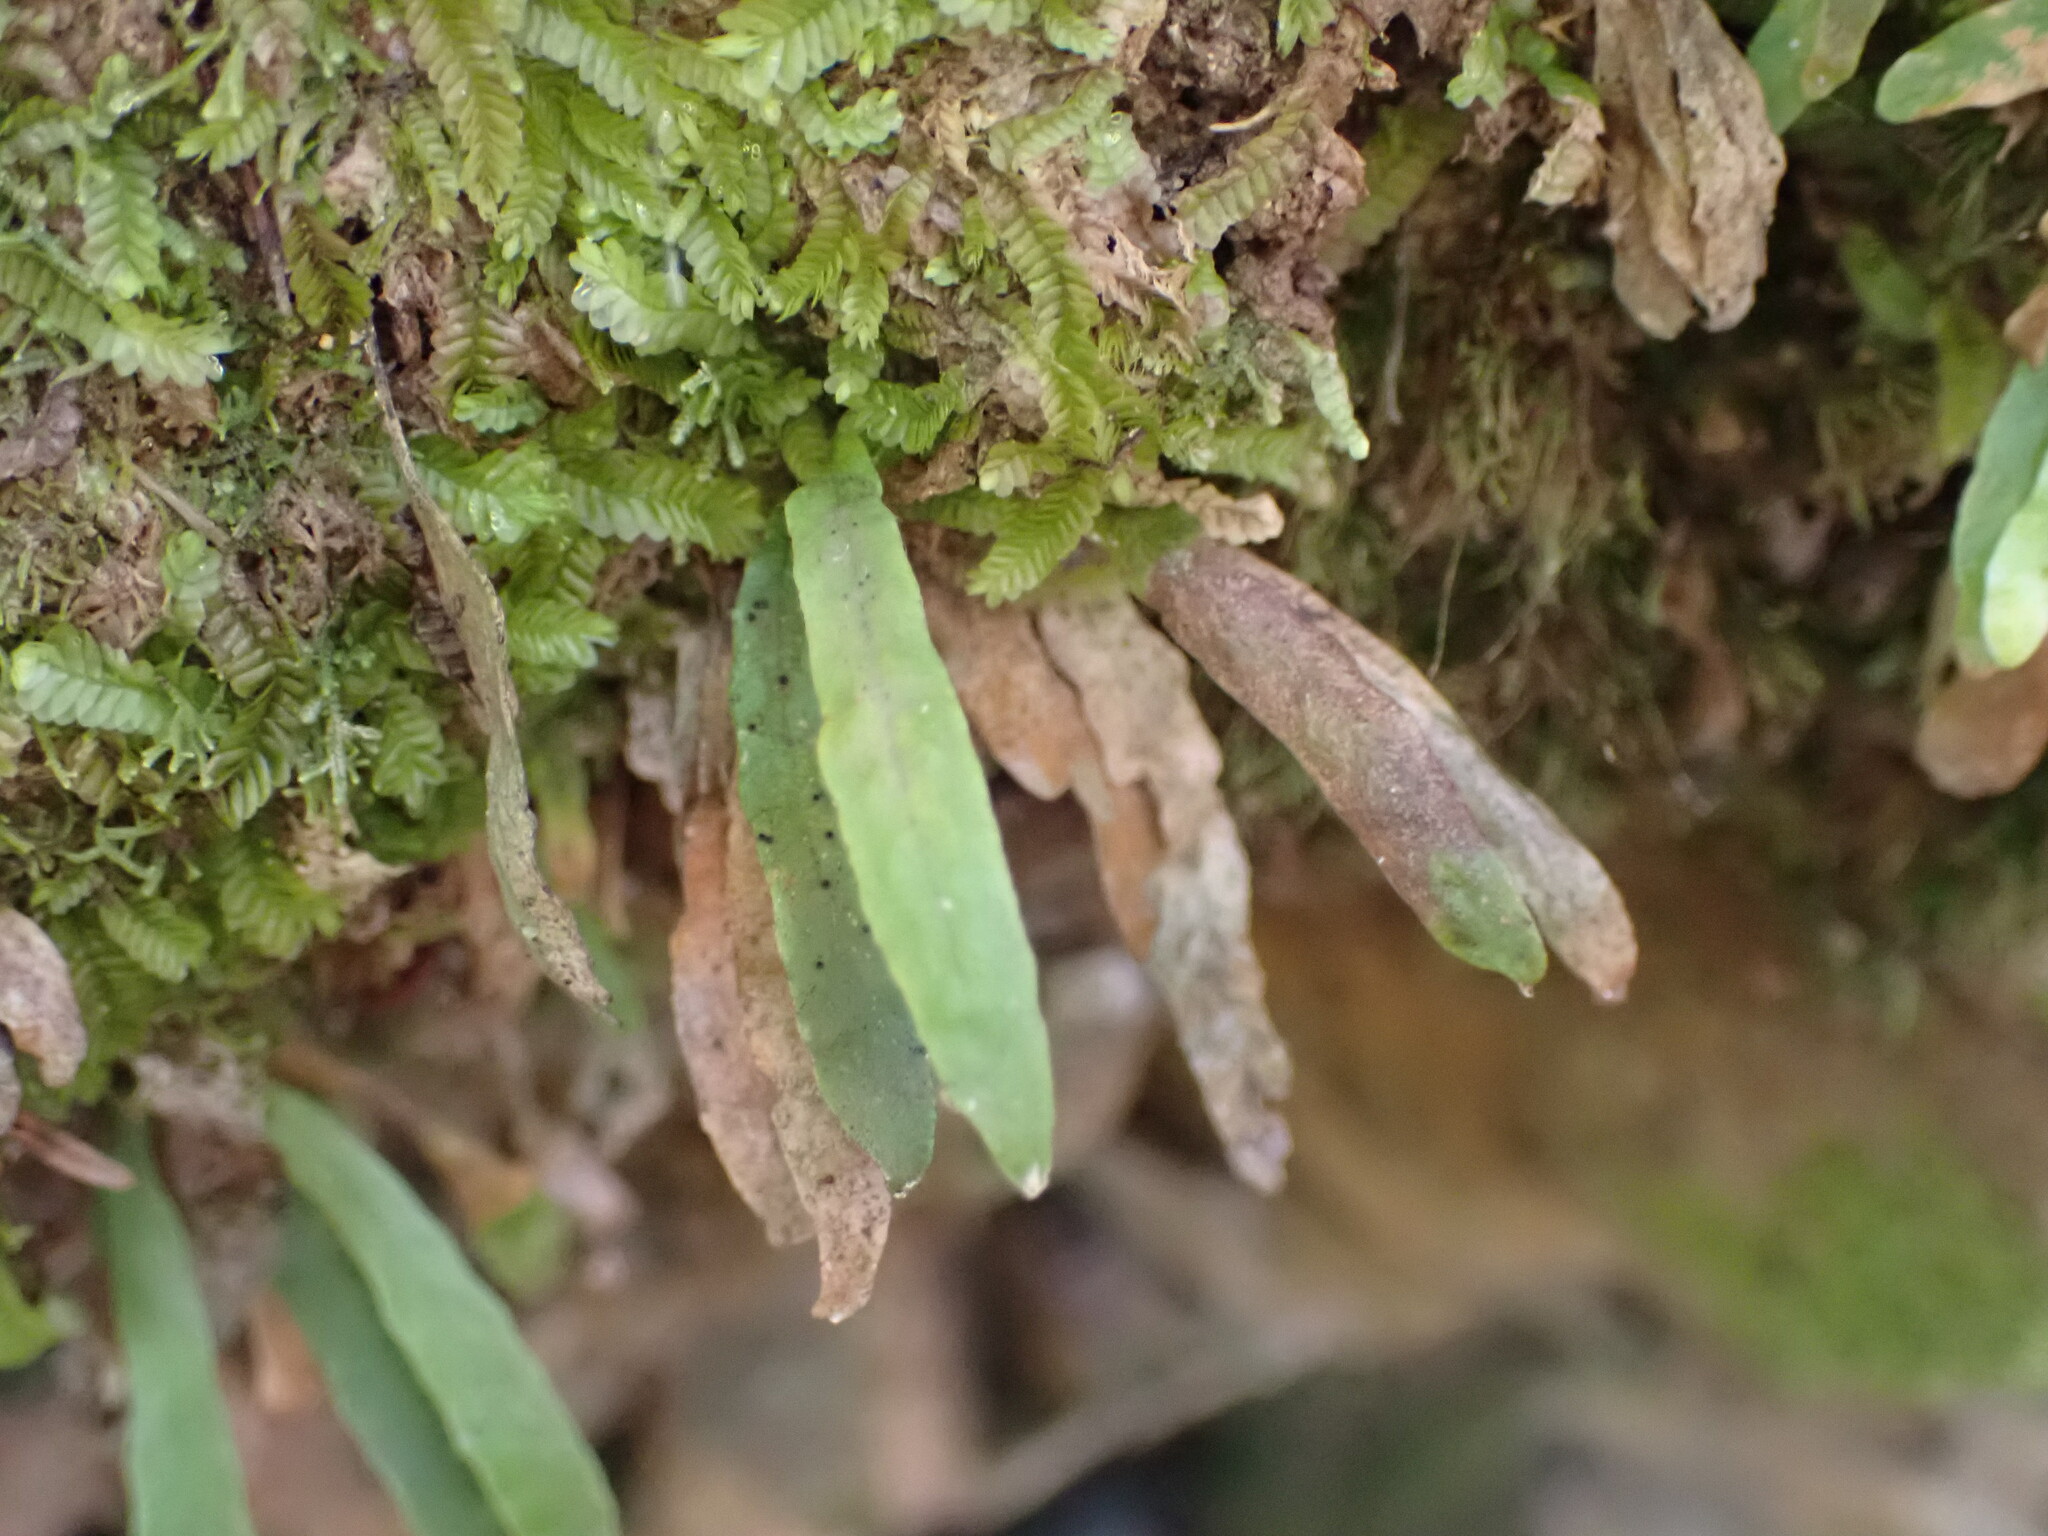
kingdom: Plantae
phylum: Tracheophyta
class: Polypodiopsida
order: Polypodiales
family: Polypodiaceae
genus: Notogrammitis
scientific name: Notogrammitis ciliata
